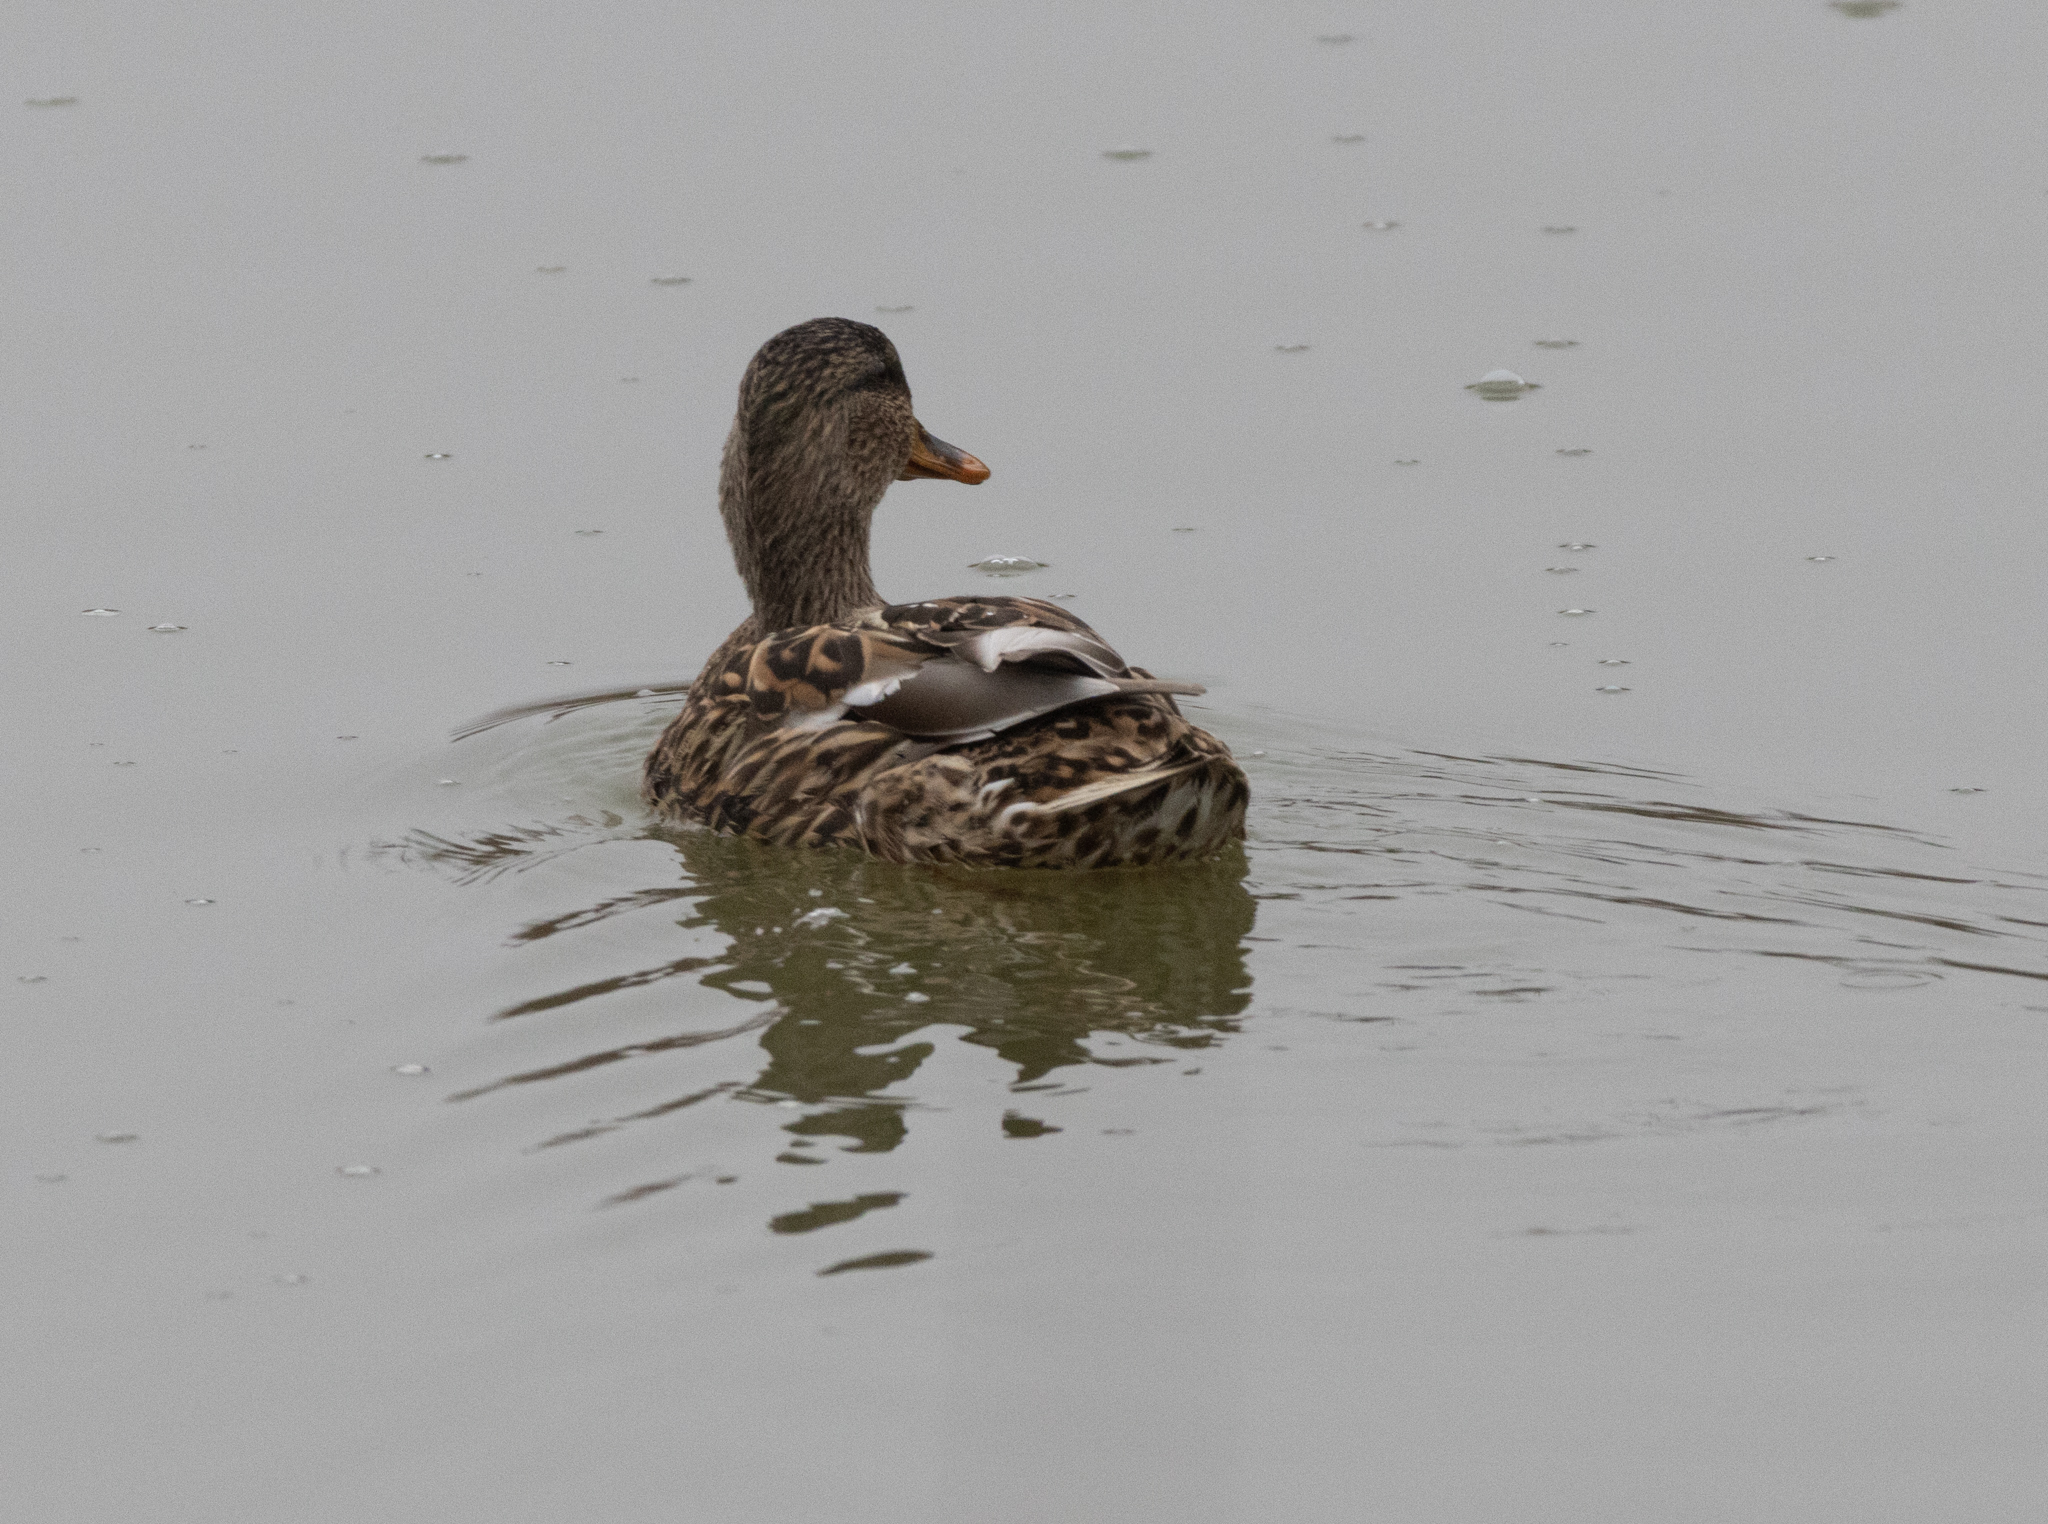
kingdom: Animalia
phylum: Chordata
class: Aves
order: Anseriformes
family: Anatidae
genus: Anas
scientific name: Anas platyrhynchos
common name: Mallard
